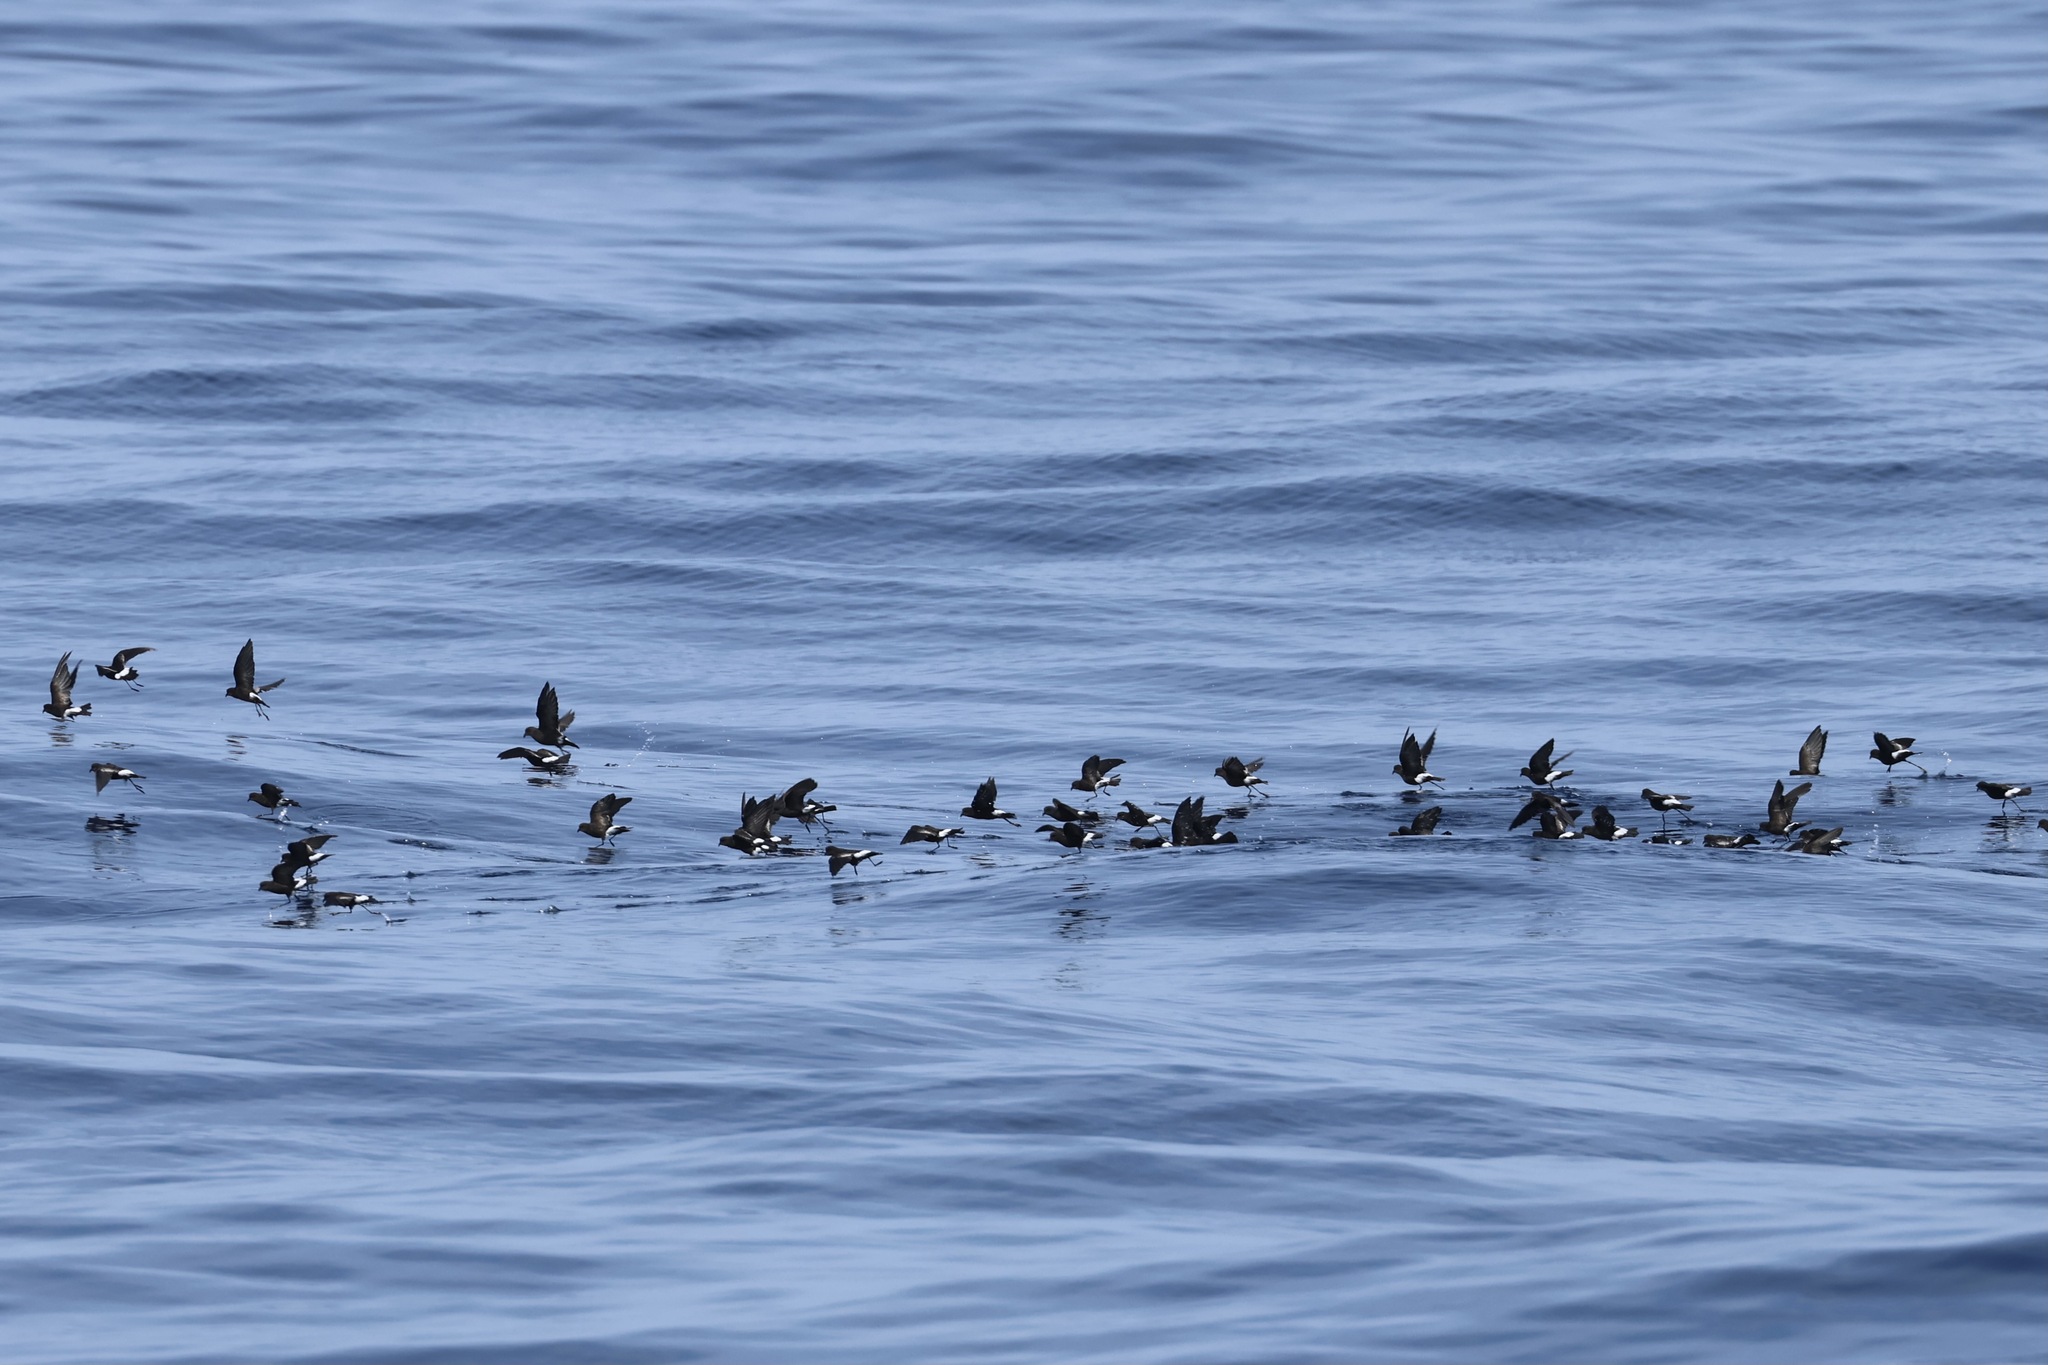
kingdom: Animalia
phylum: Chordata
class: Aves
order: Procellariiformes
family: Hydrobatidae
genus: Oceanites
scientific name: Oceanites oceanicus
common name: Wilson's storm petrel
